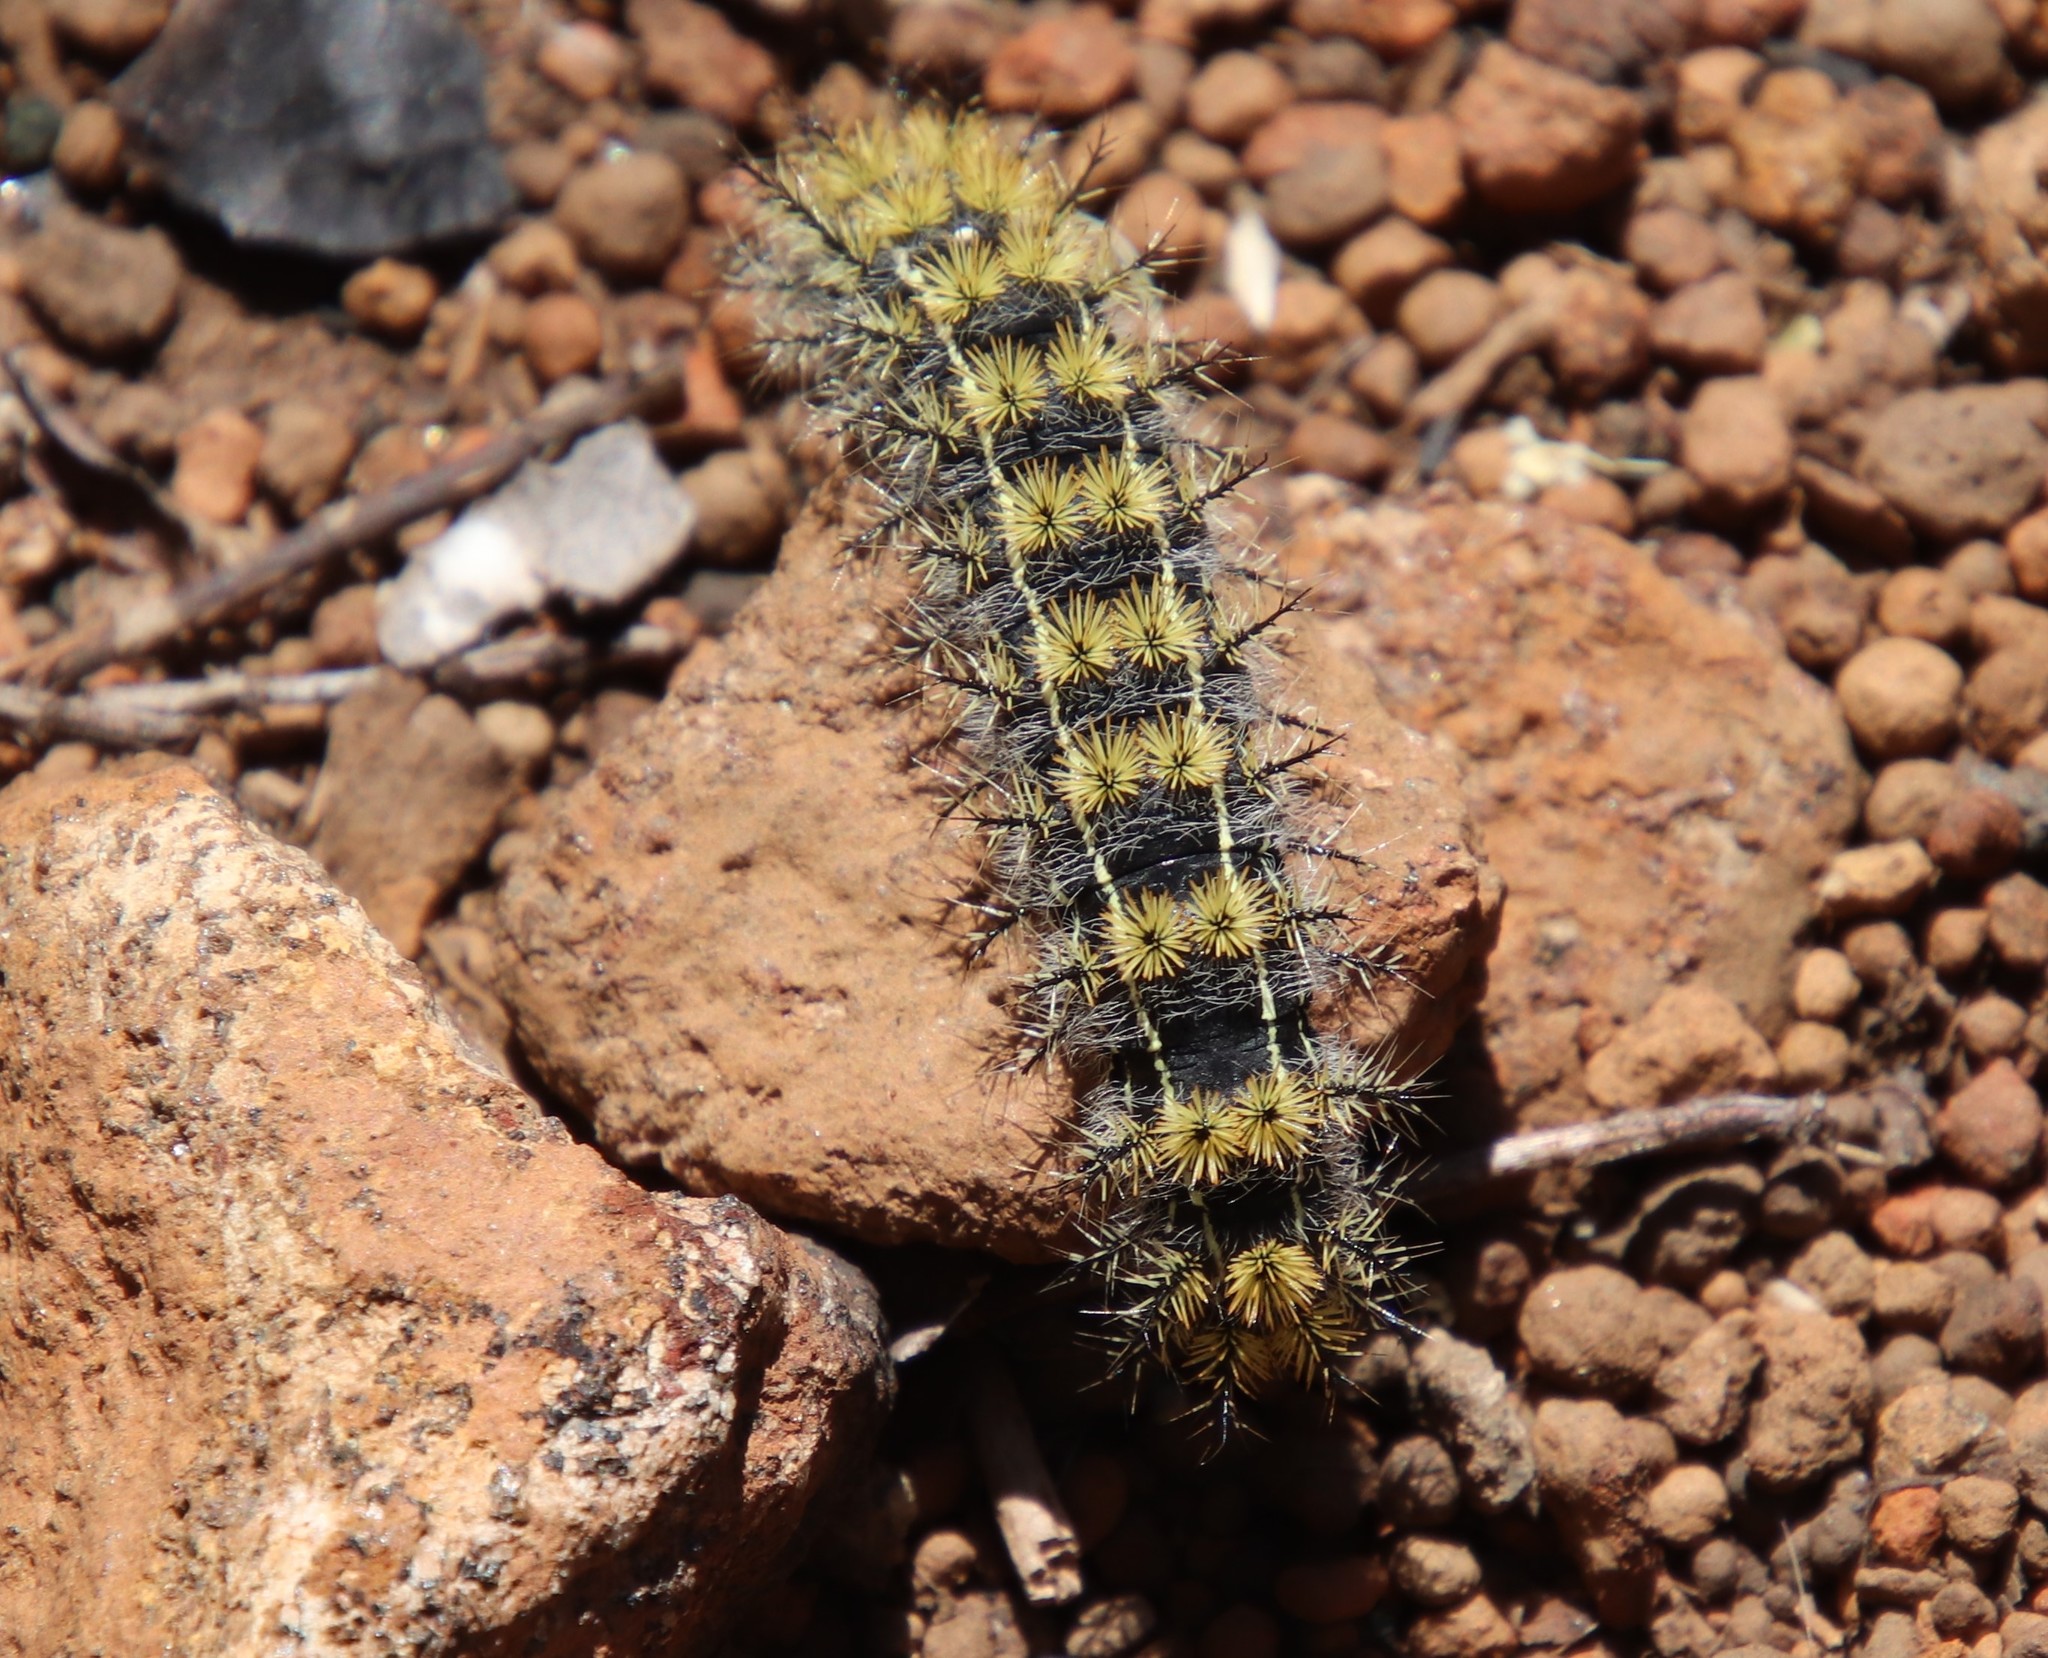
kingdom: Animalia
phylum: Arthropoda
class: Insecta
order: Lepidoptera
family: Saturniidae
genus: Hemileuca
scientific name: Hemileuca eglanterina
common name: Western sheepmoth
